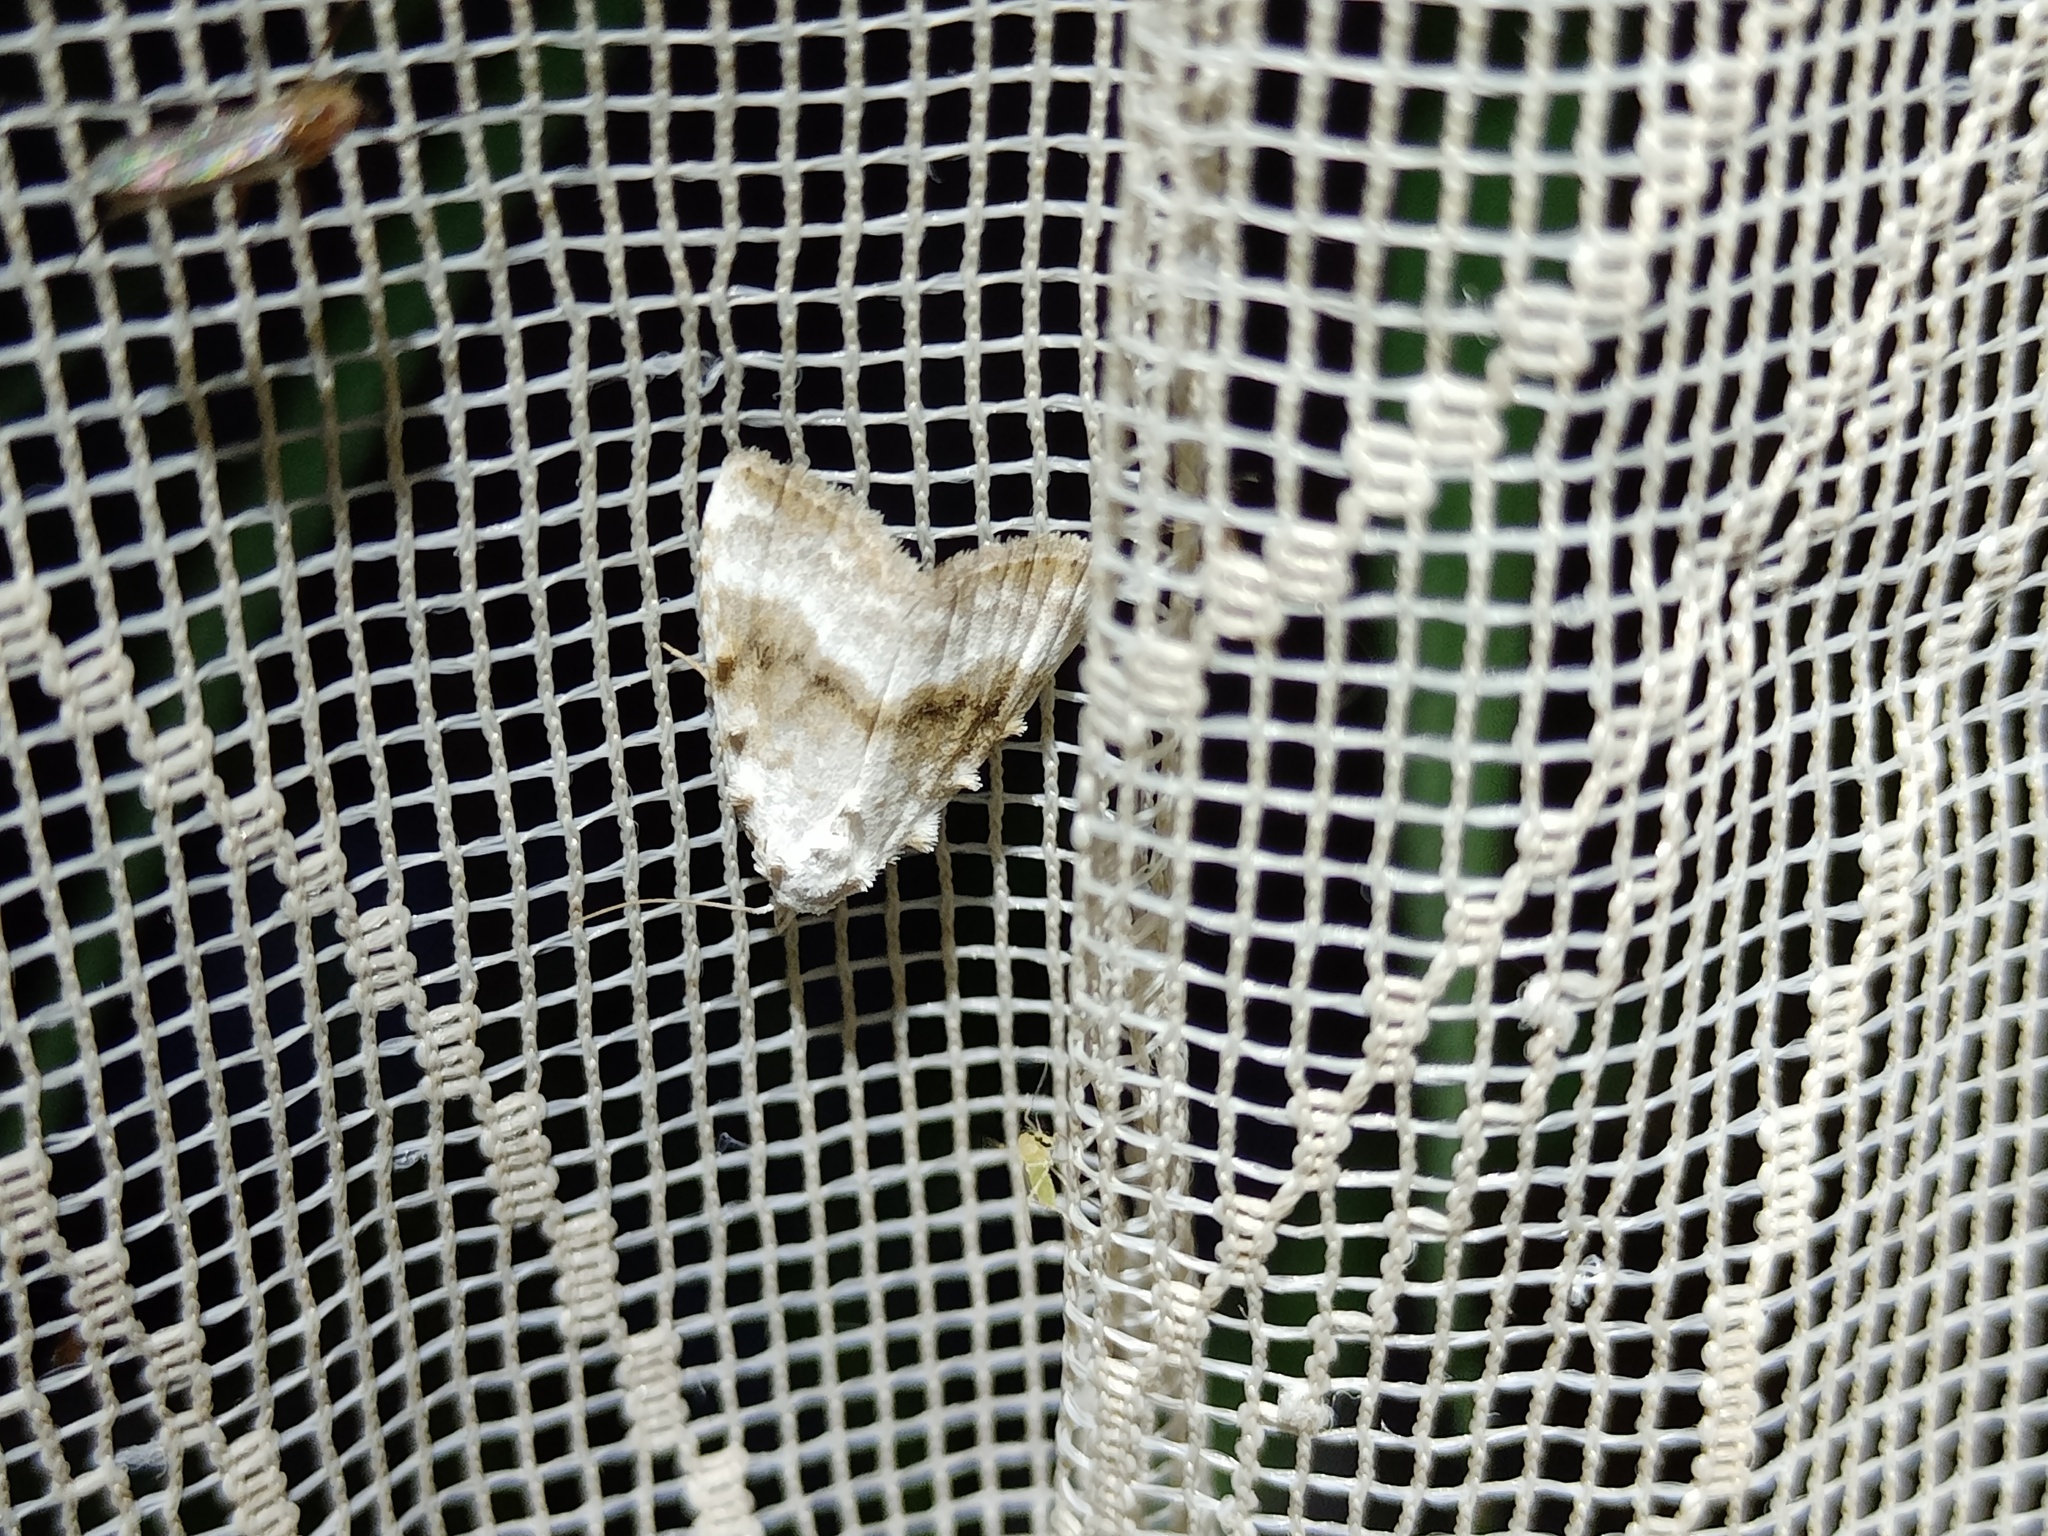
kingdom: Animalia
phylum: Arthropoda
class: Insecta
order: Lepidoptera
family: Nolidae
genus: Meganola
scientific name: Meganola albula
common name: Kent black arches
